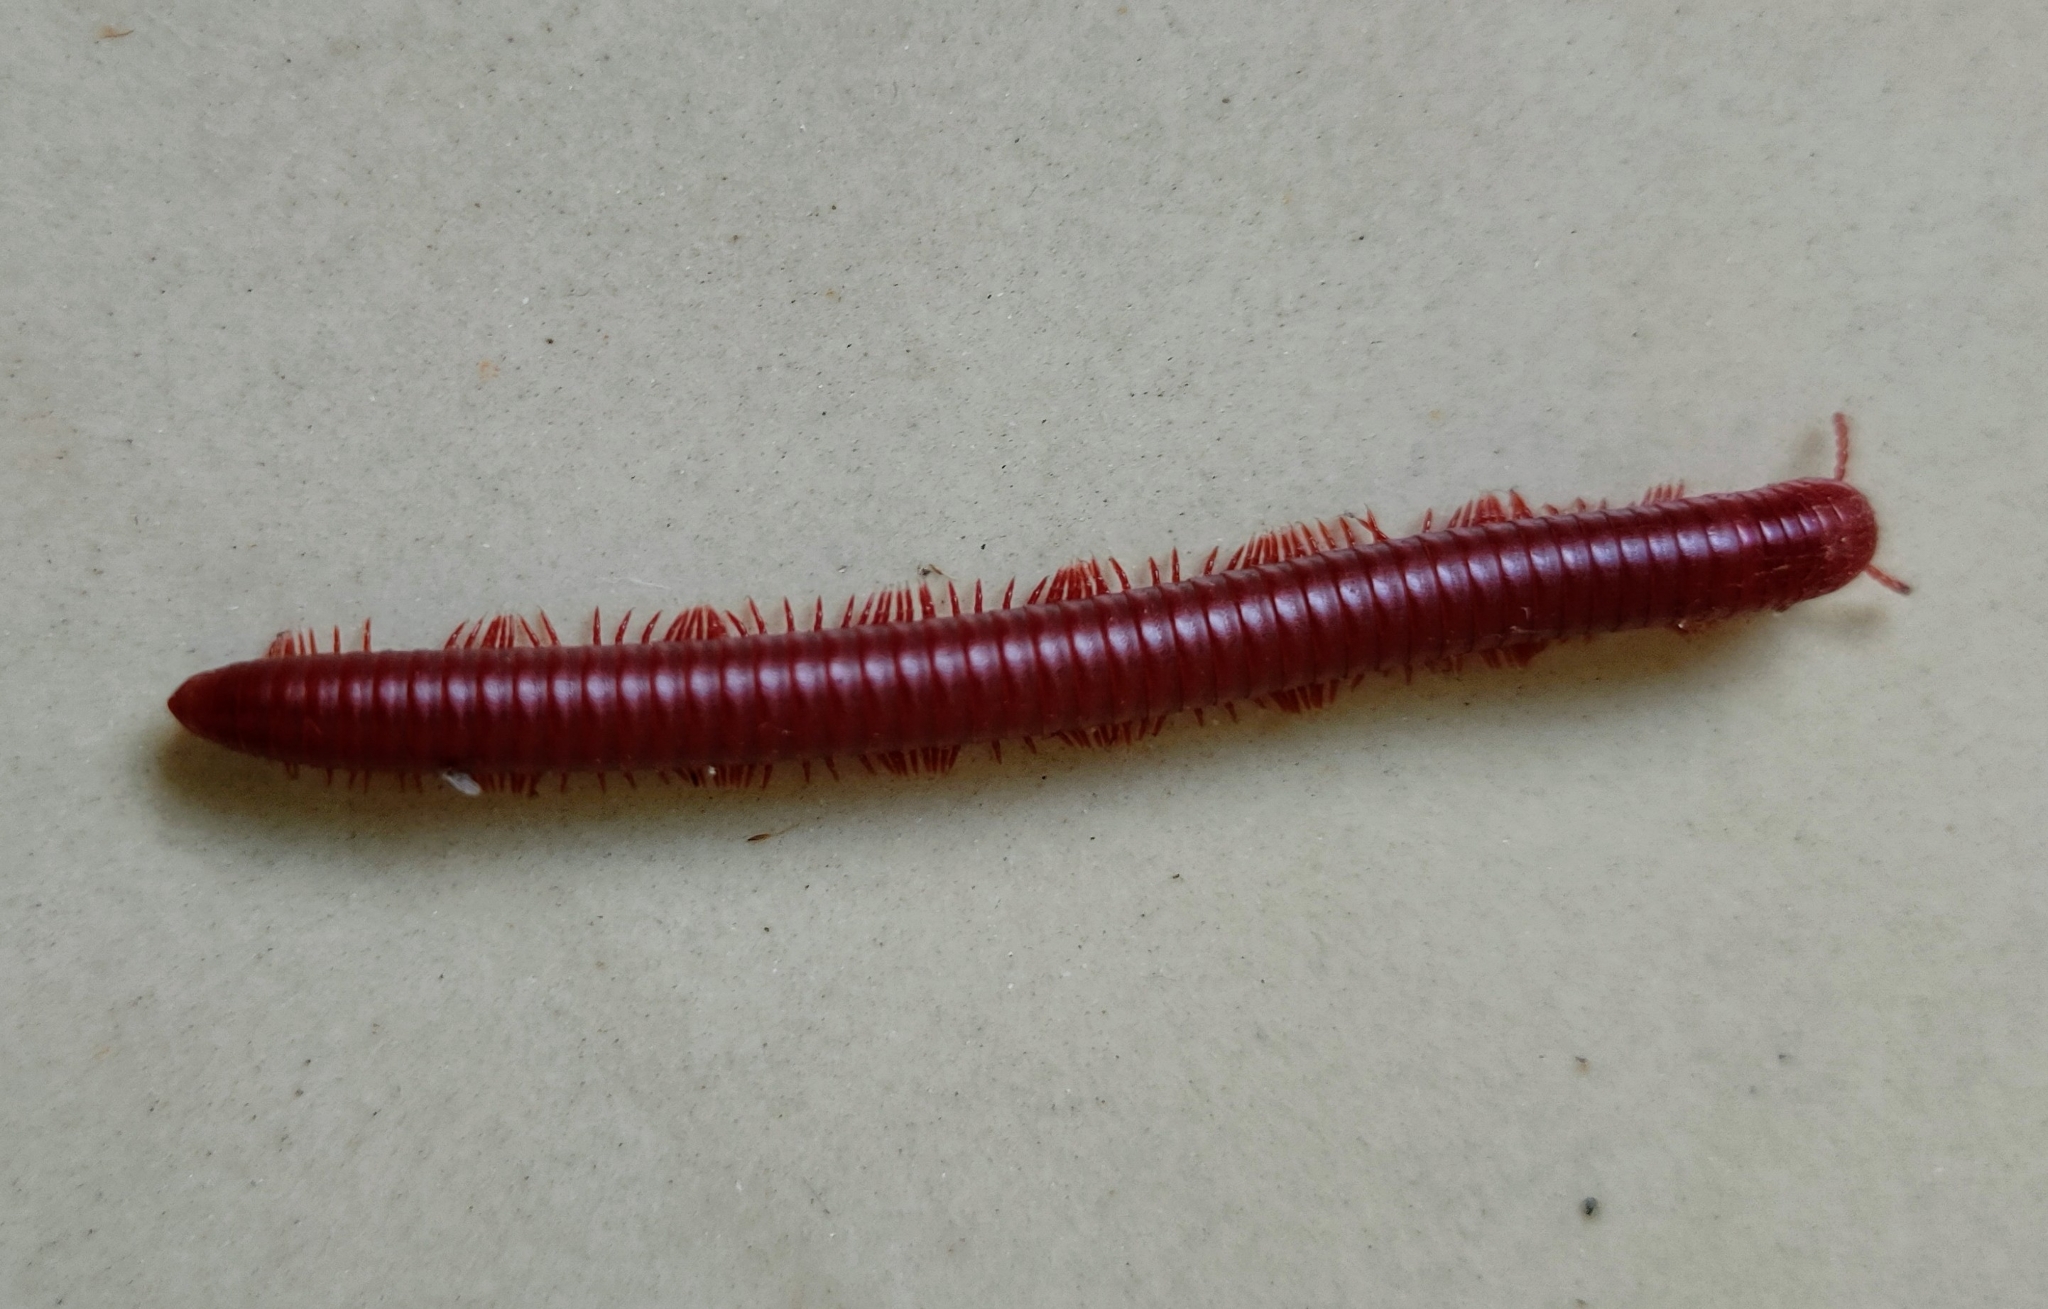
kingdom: Animalia
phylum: Arthropoda
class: Diplopoda
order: Spirobolida
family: Pachybolidae
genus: Trigoniulus
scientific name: Trigoniulus corallinus
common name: Millipede
